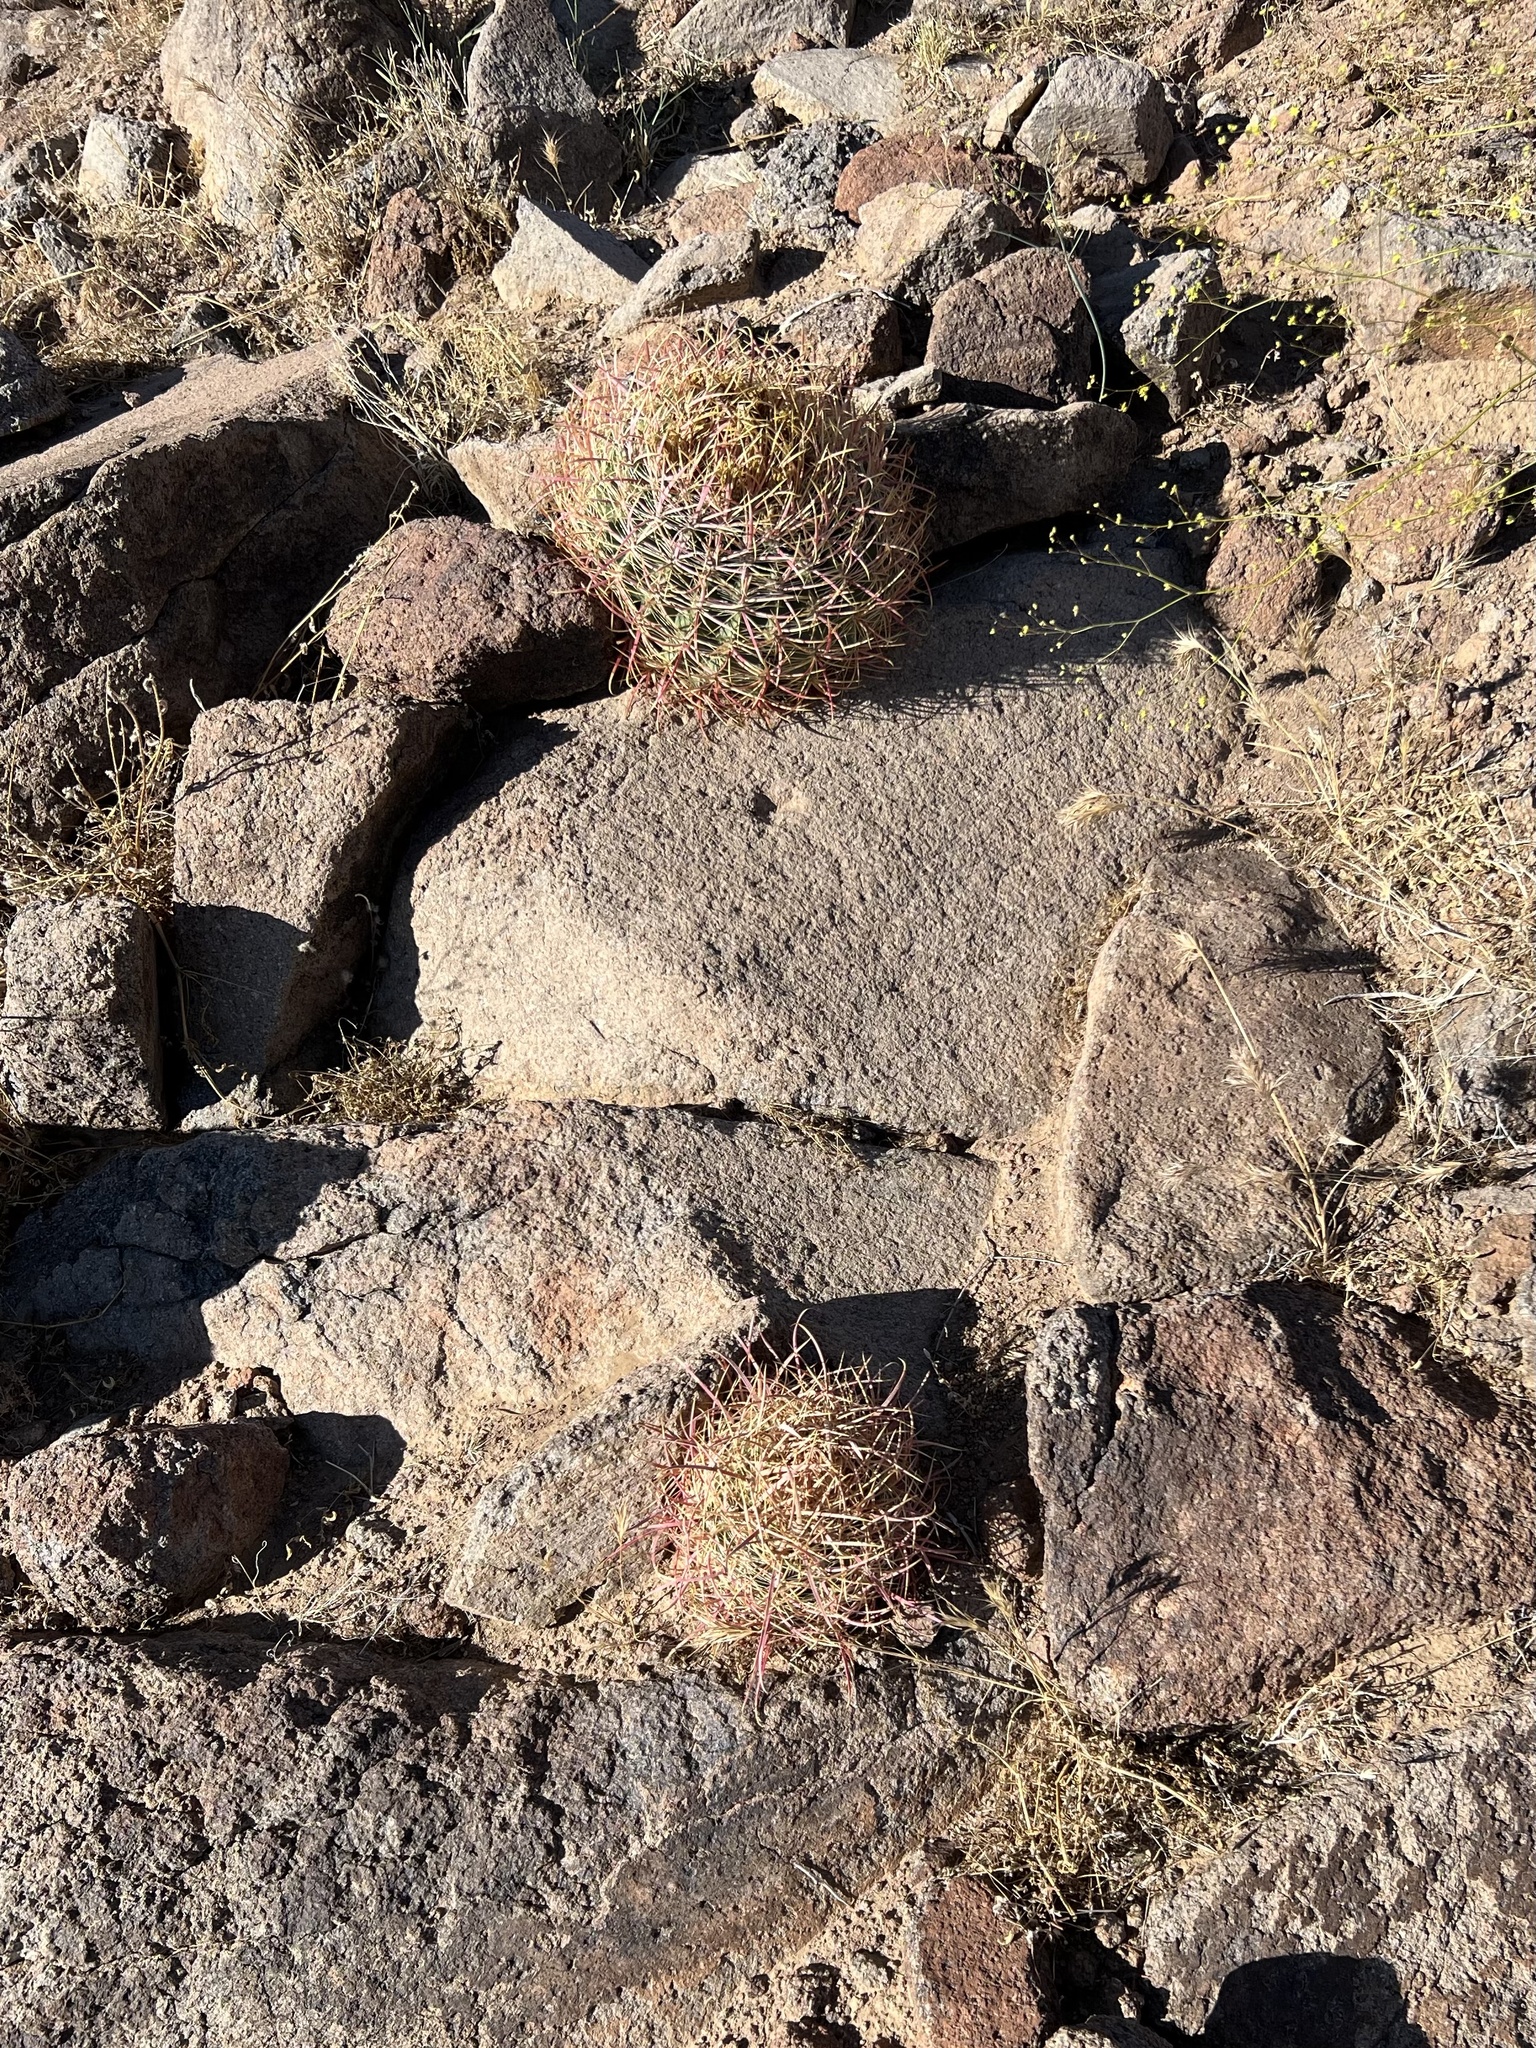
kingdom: Plantae
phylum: Tracheophyta
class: Magnoliopsida
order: Caryophyllales
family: Cactaceae
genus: Ferocactus
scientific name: Ferocactus cylindraceus
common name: California barrel cactus
